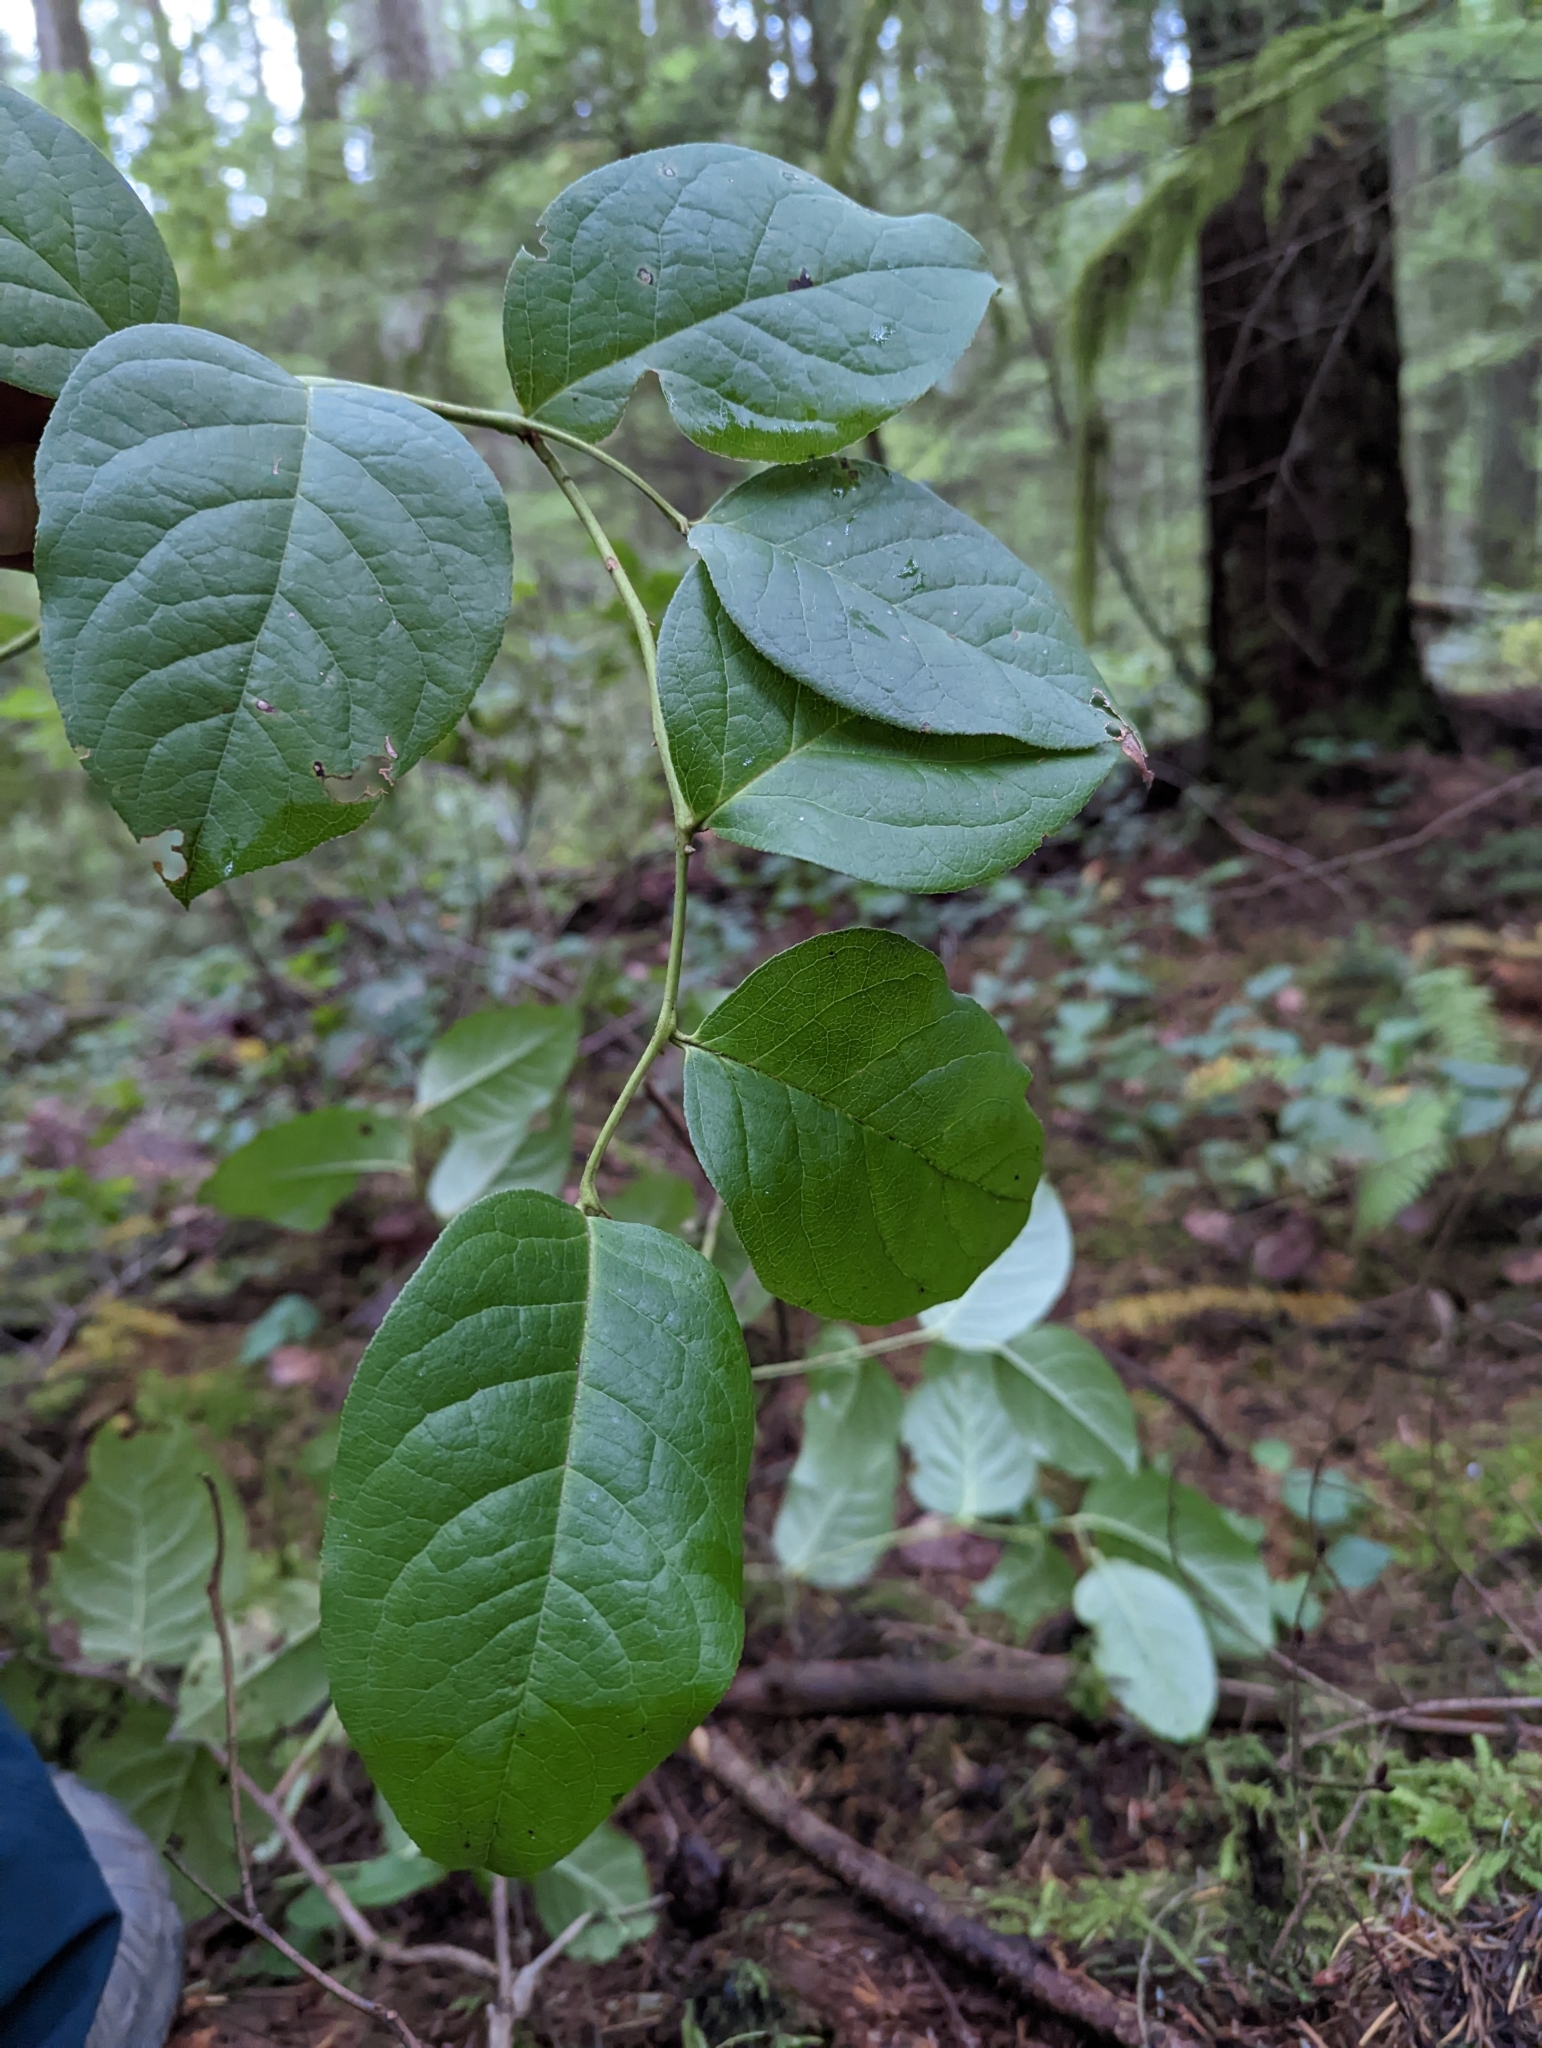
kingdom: Plantae
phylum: Tracheophyta
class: Magnoliopsida
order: Ericales
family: Ericaceae
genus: Gaultheria
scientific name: Gaultheria shallon
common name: Shallon
